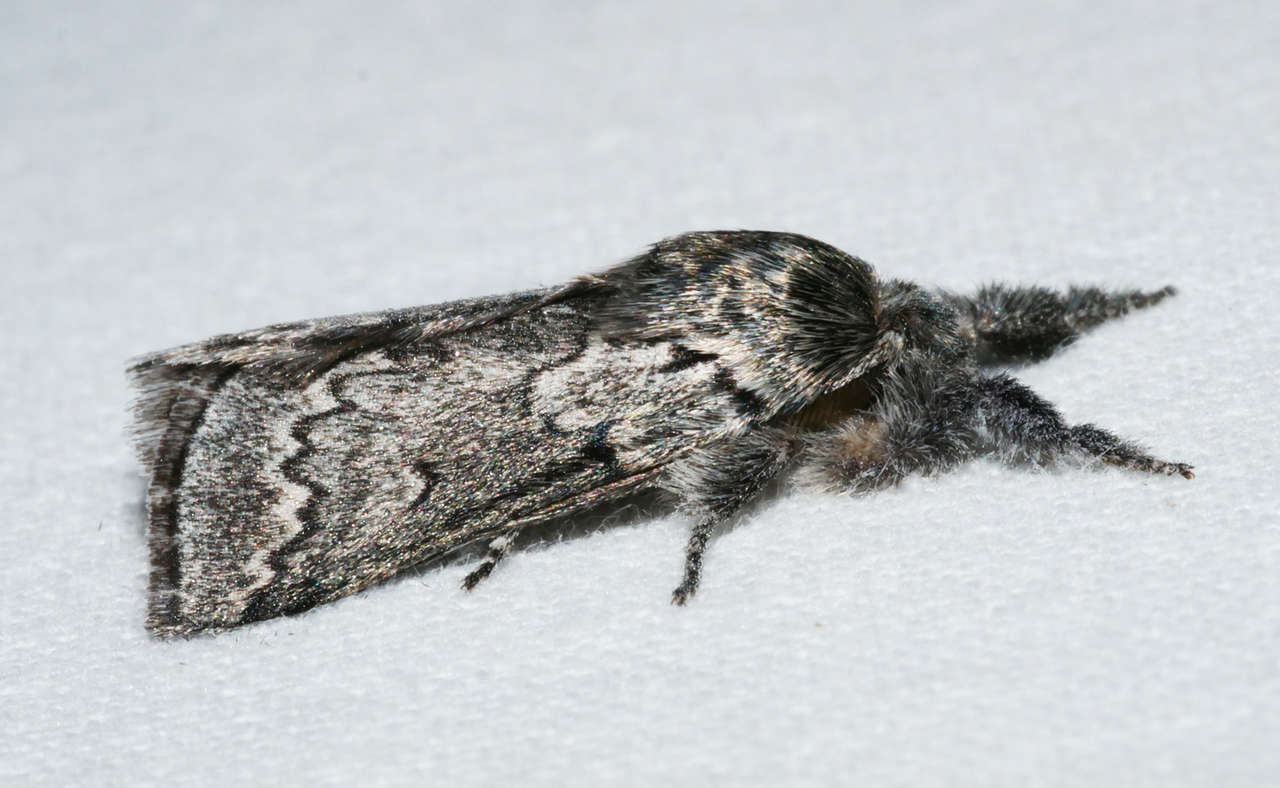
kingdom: Animalia
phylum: Arthropoda
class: Insecta
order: Lepidoptera
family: Anthelidae
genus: Munychryia
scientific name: Munychryia senicula
